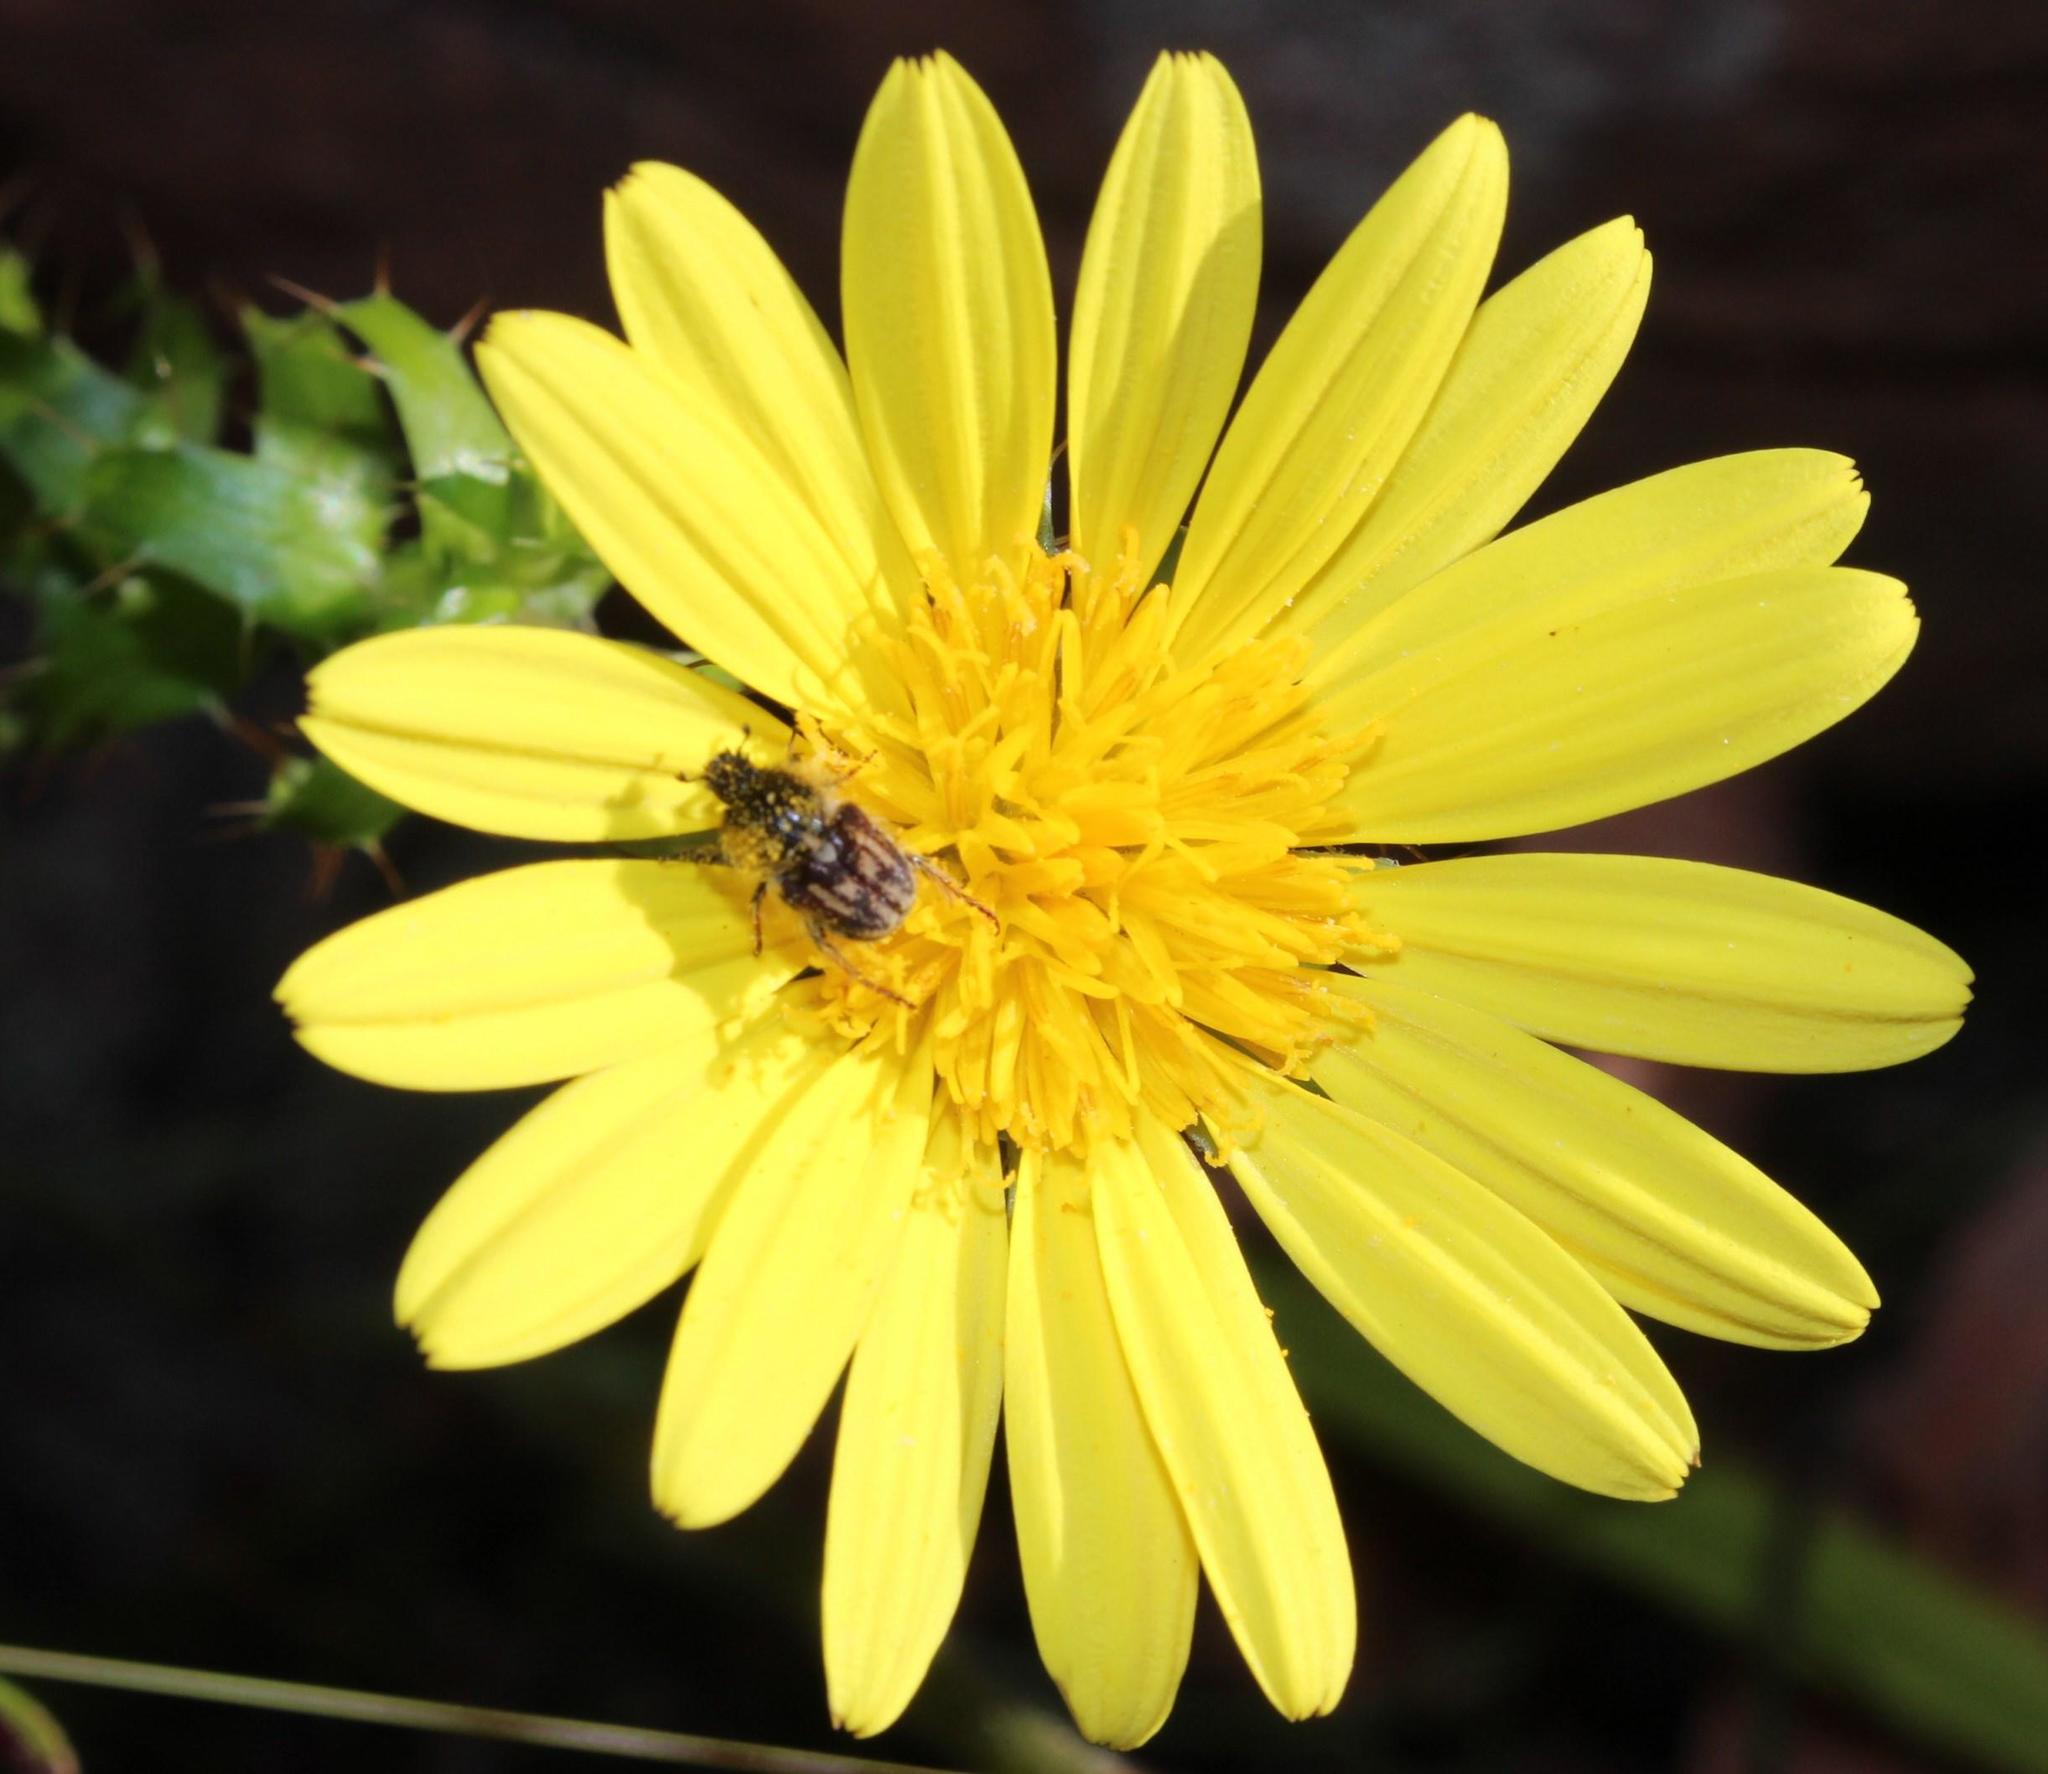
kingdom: Plantae
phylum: Tracheophyta
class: Magnoliopsida
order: Asterales
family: Asteraceae
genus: Cullumia
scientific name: Cullumia setosa
